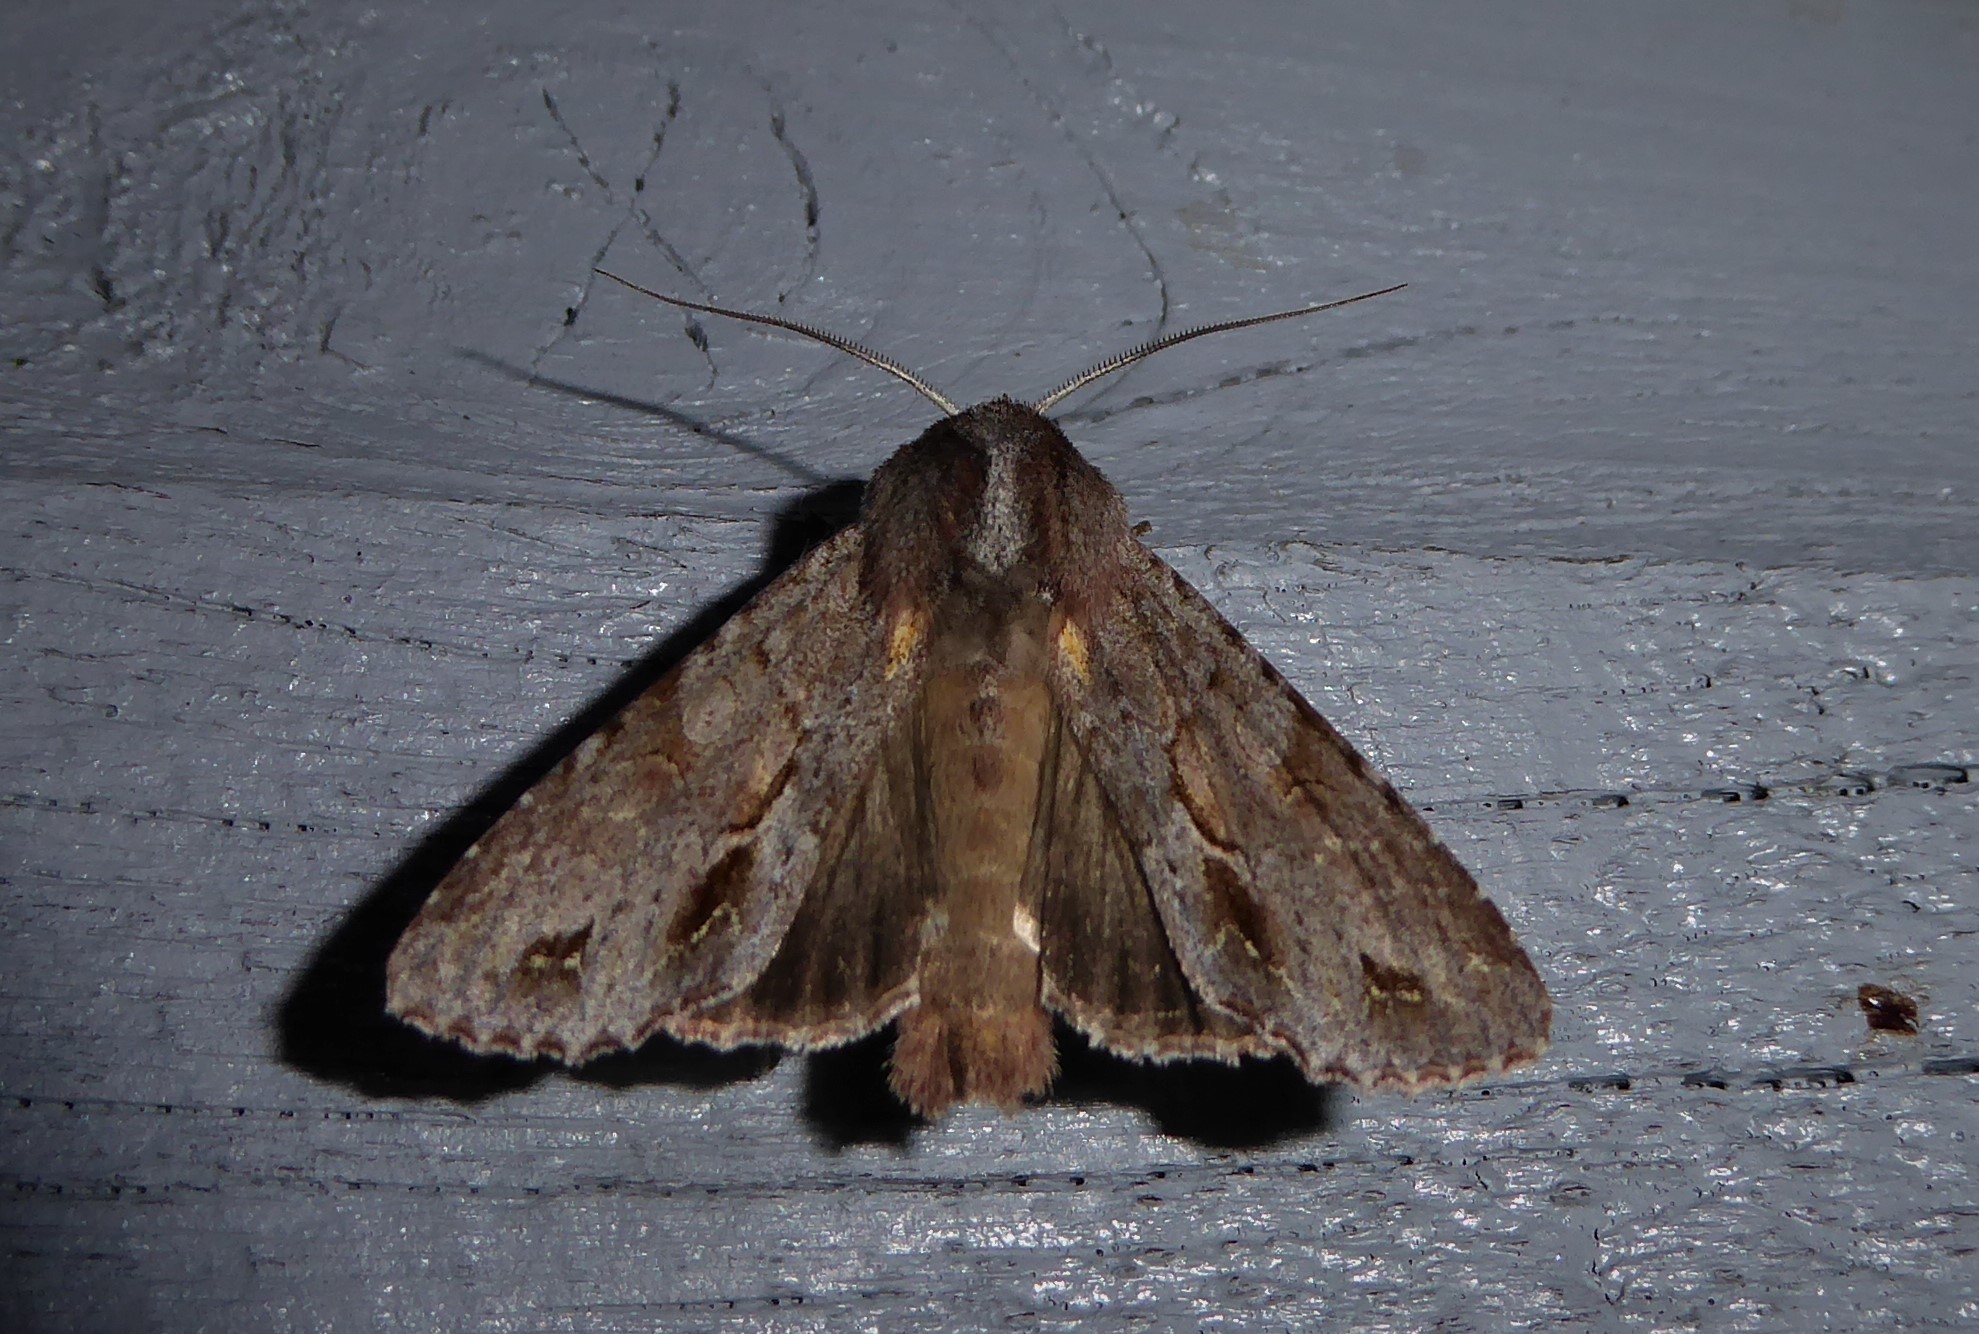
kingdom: Animalia
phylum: Arthropoda
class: Insecta
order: Lepidoptera
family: Noctuidae
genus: Ichneutica
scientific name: Ichneutica
